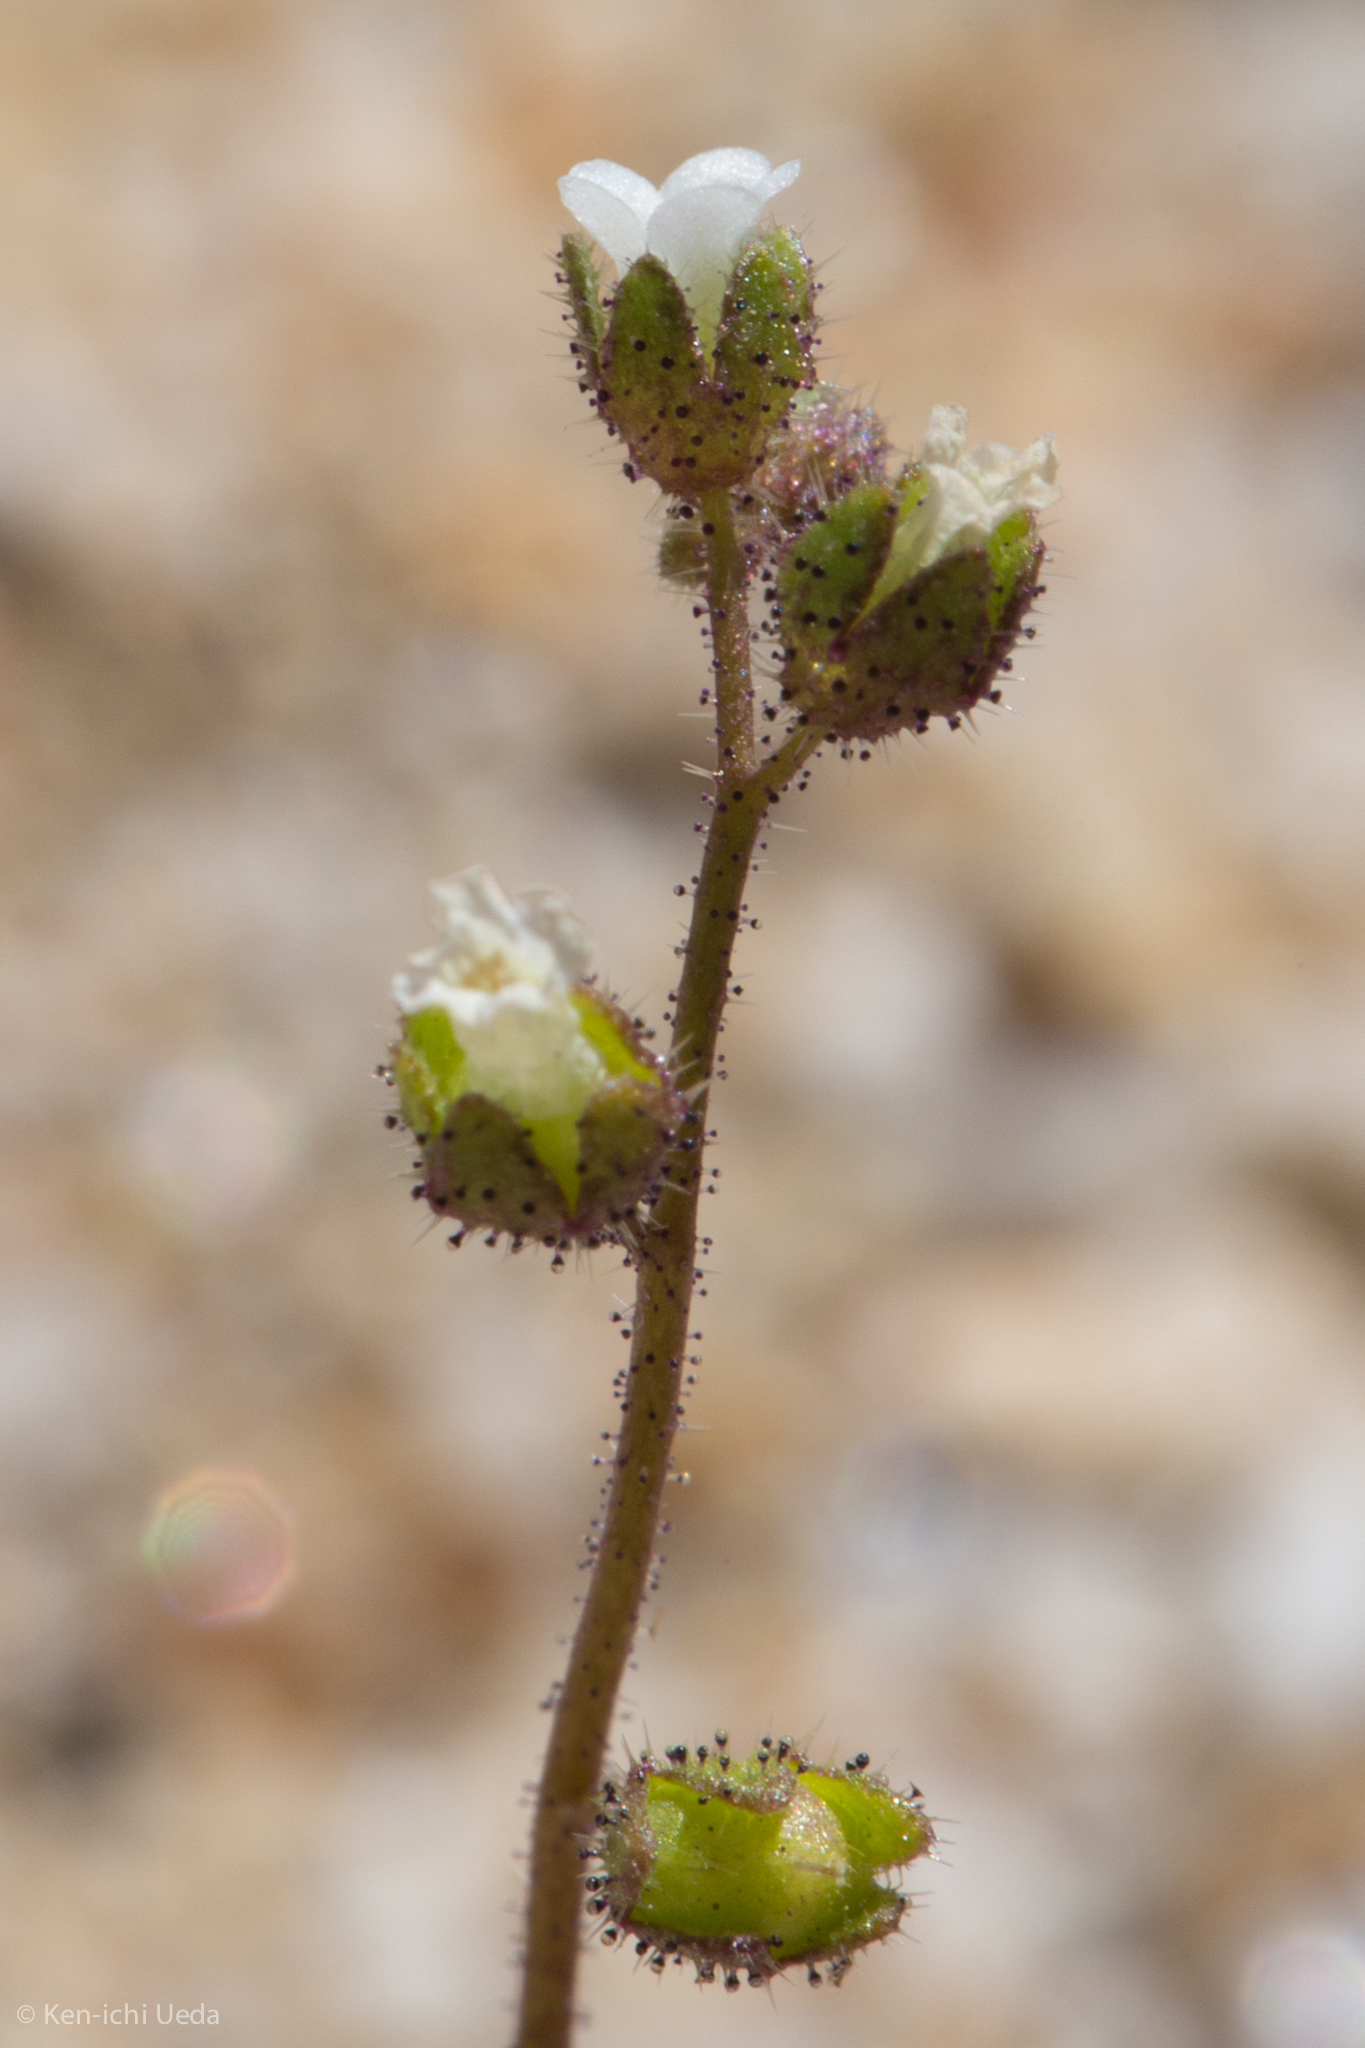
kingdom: Plantae
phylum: Tracheophyta
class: Magnoliopsida
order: Boraginales
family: Hydrophyllaceae
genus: Eucrypta
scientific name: Eucrypta micrantha
